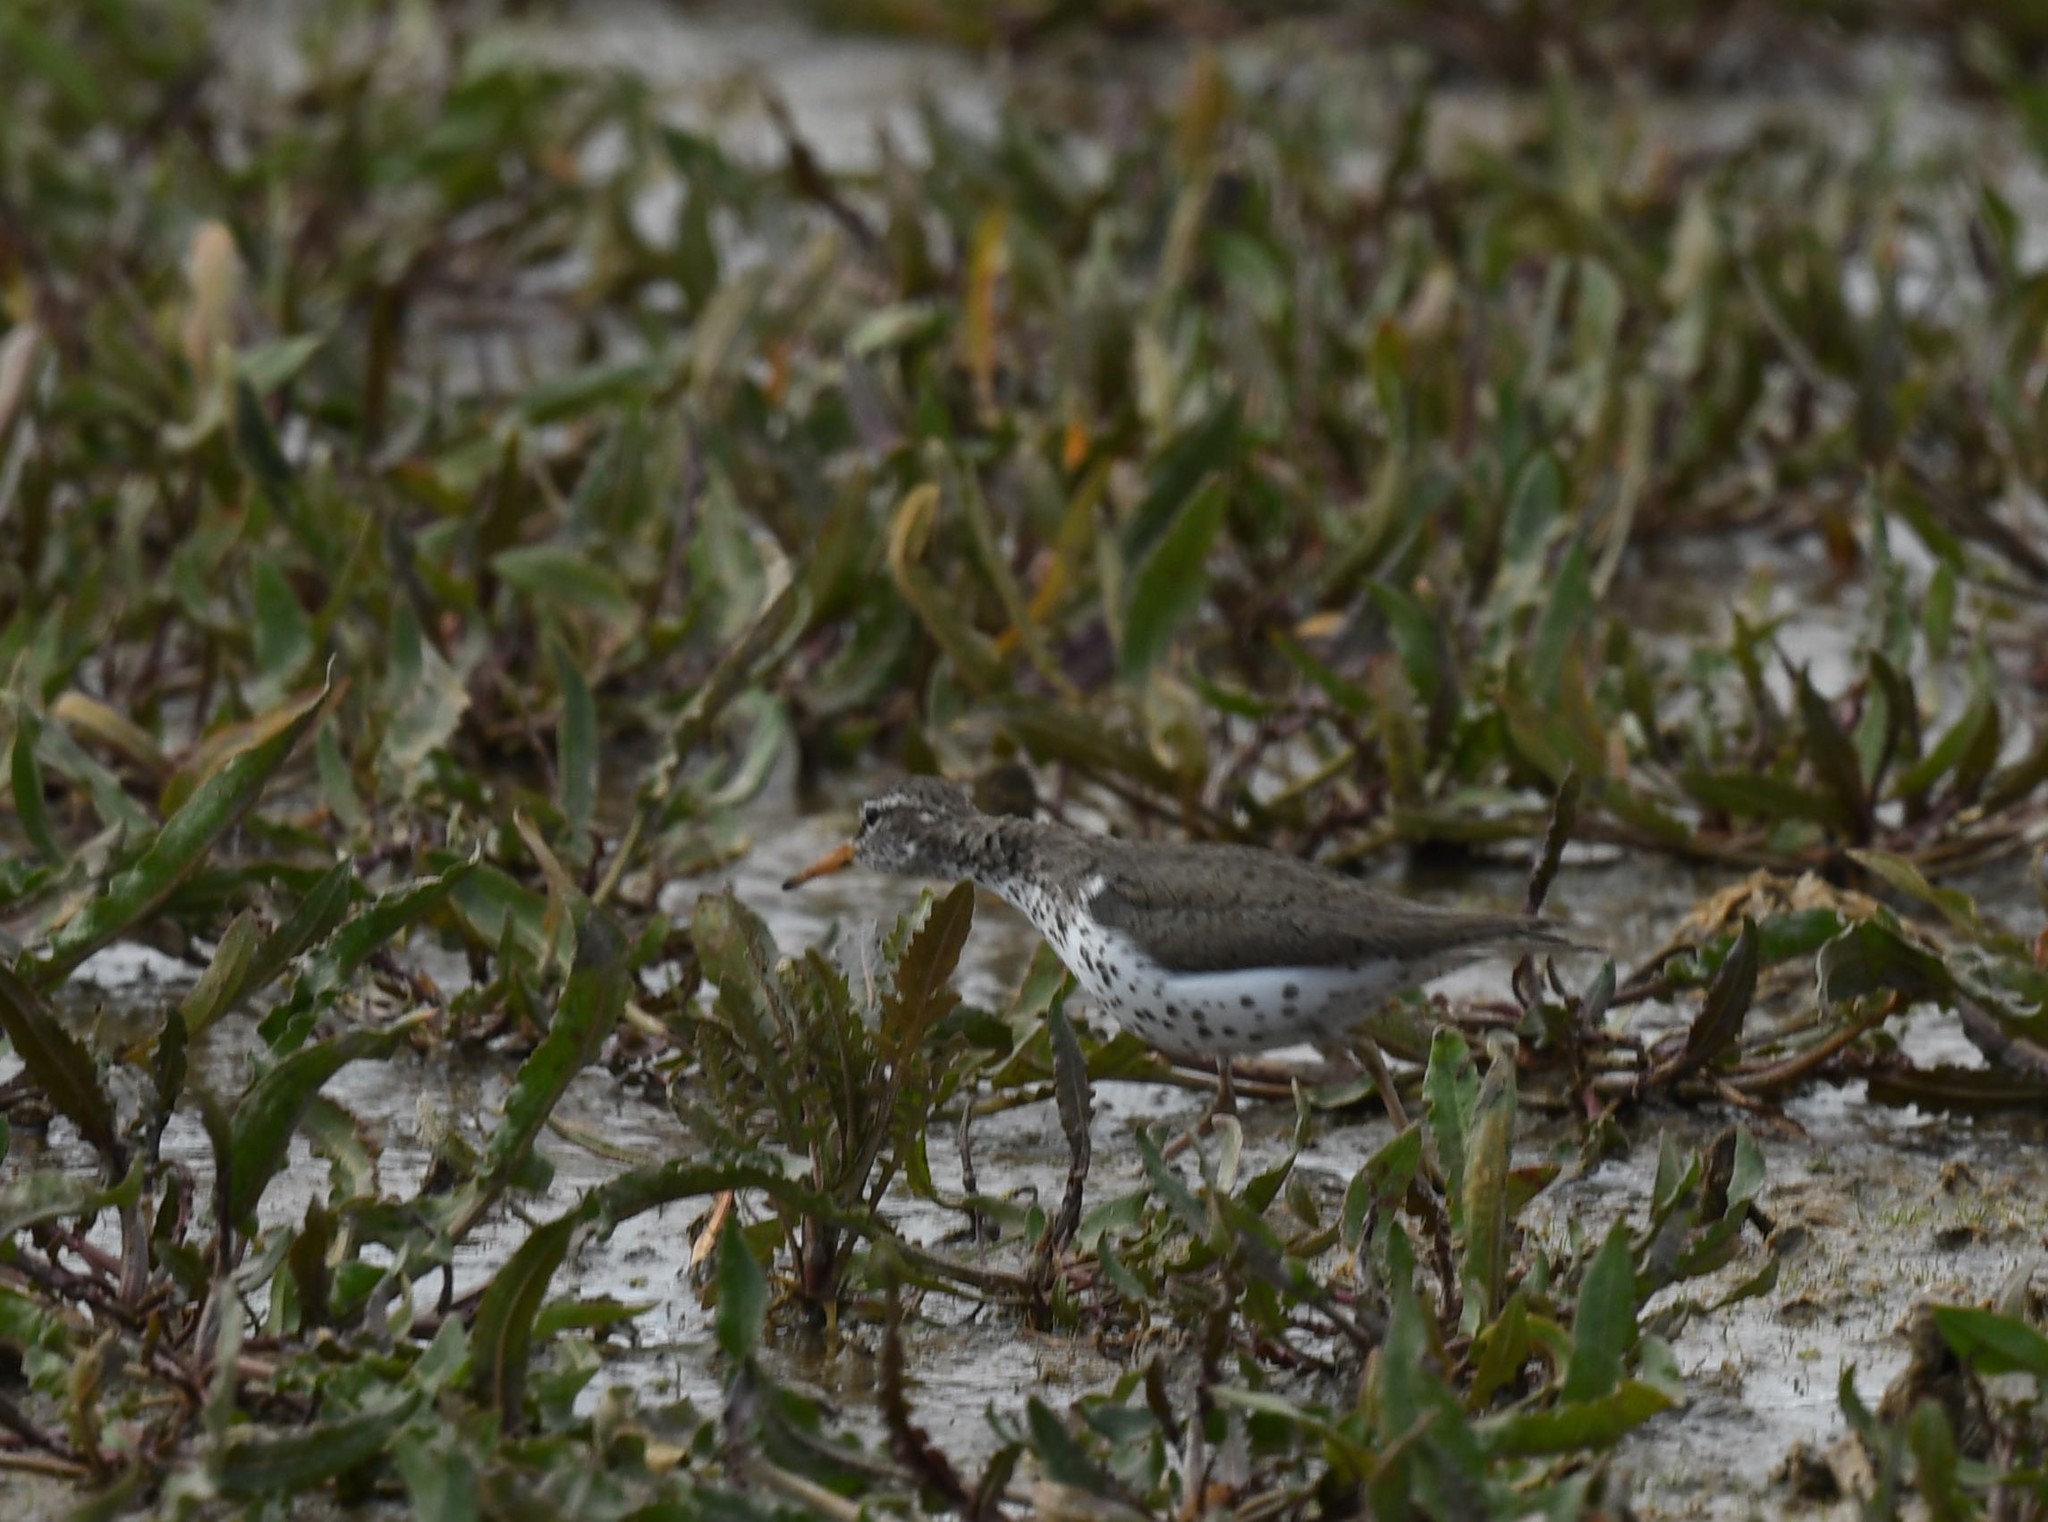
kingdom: Animalia
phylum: Chordata
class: Aves
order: Charadriiformes
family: Scolopacidae
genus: Actitis
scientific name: Actitis macularius
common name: Spotted sandpiper
